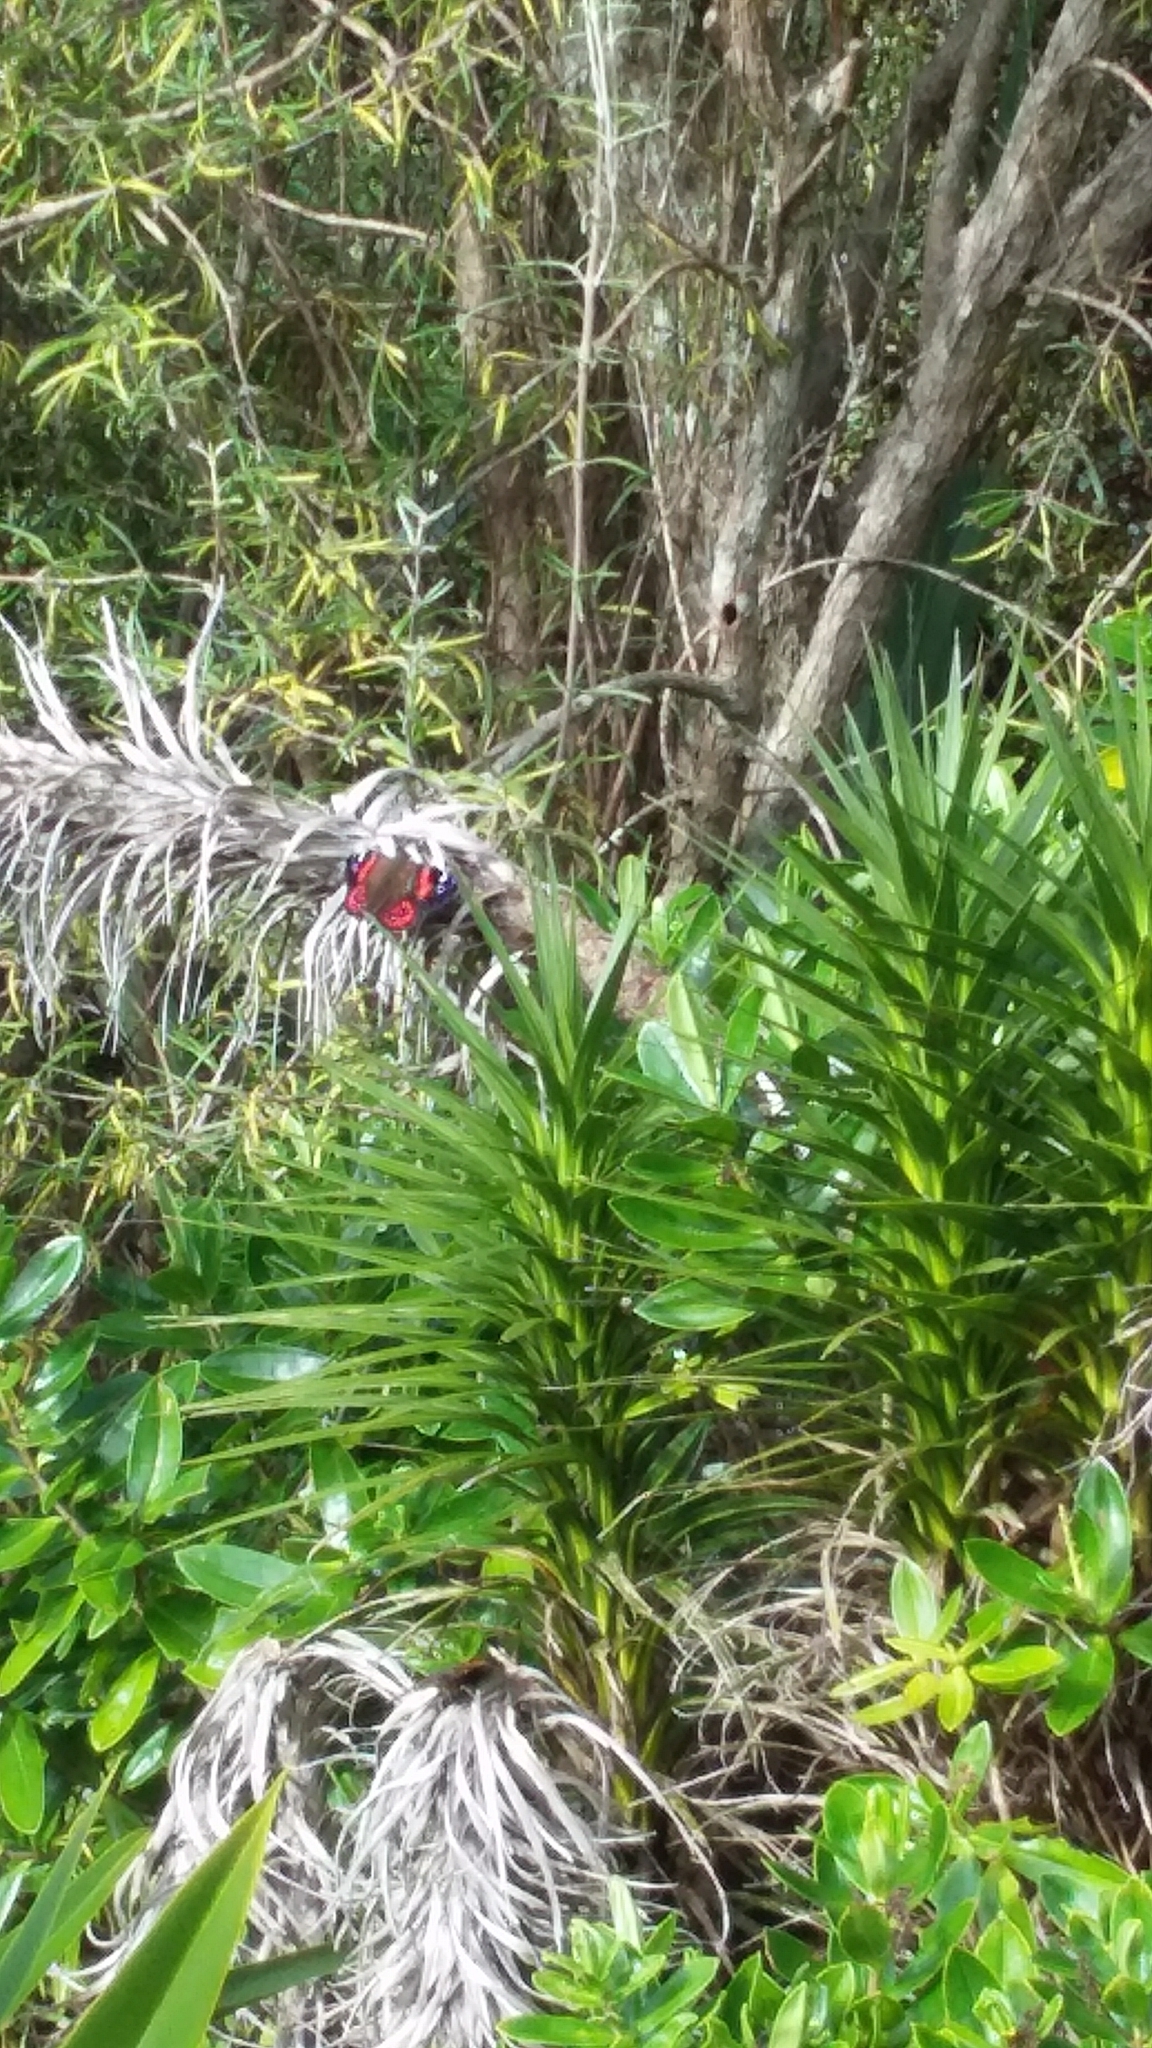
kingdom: Animalia
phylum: Arthropoda
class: Insecta
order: Lepidoptera
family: Nymphalidae
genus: Vanessa
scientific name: Vanessa gonerilla
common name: New zealand red admiral
